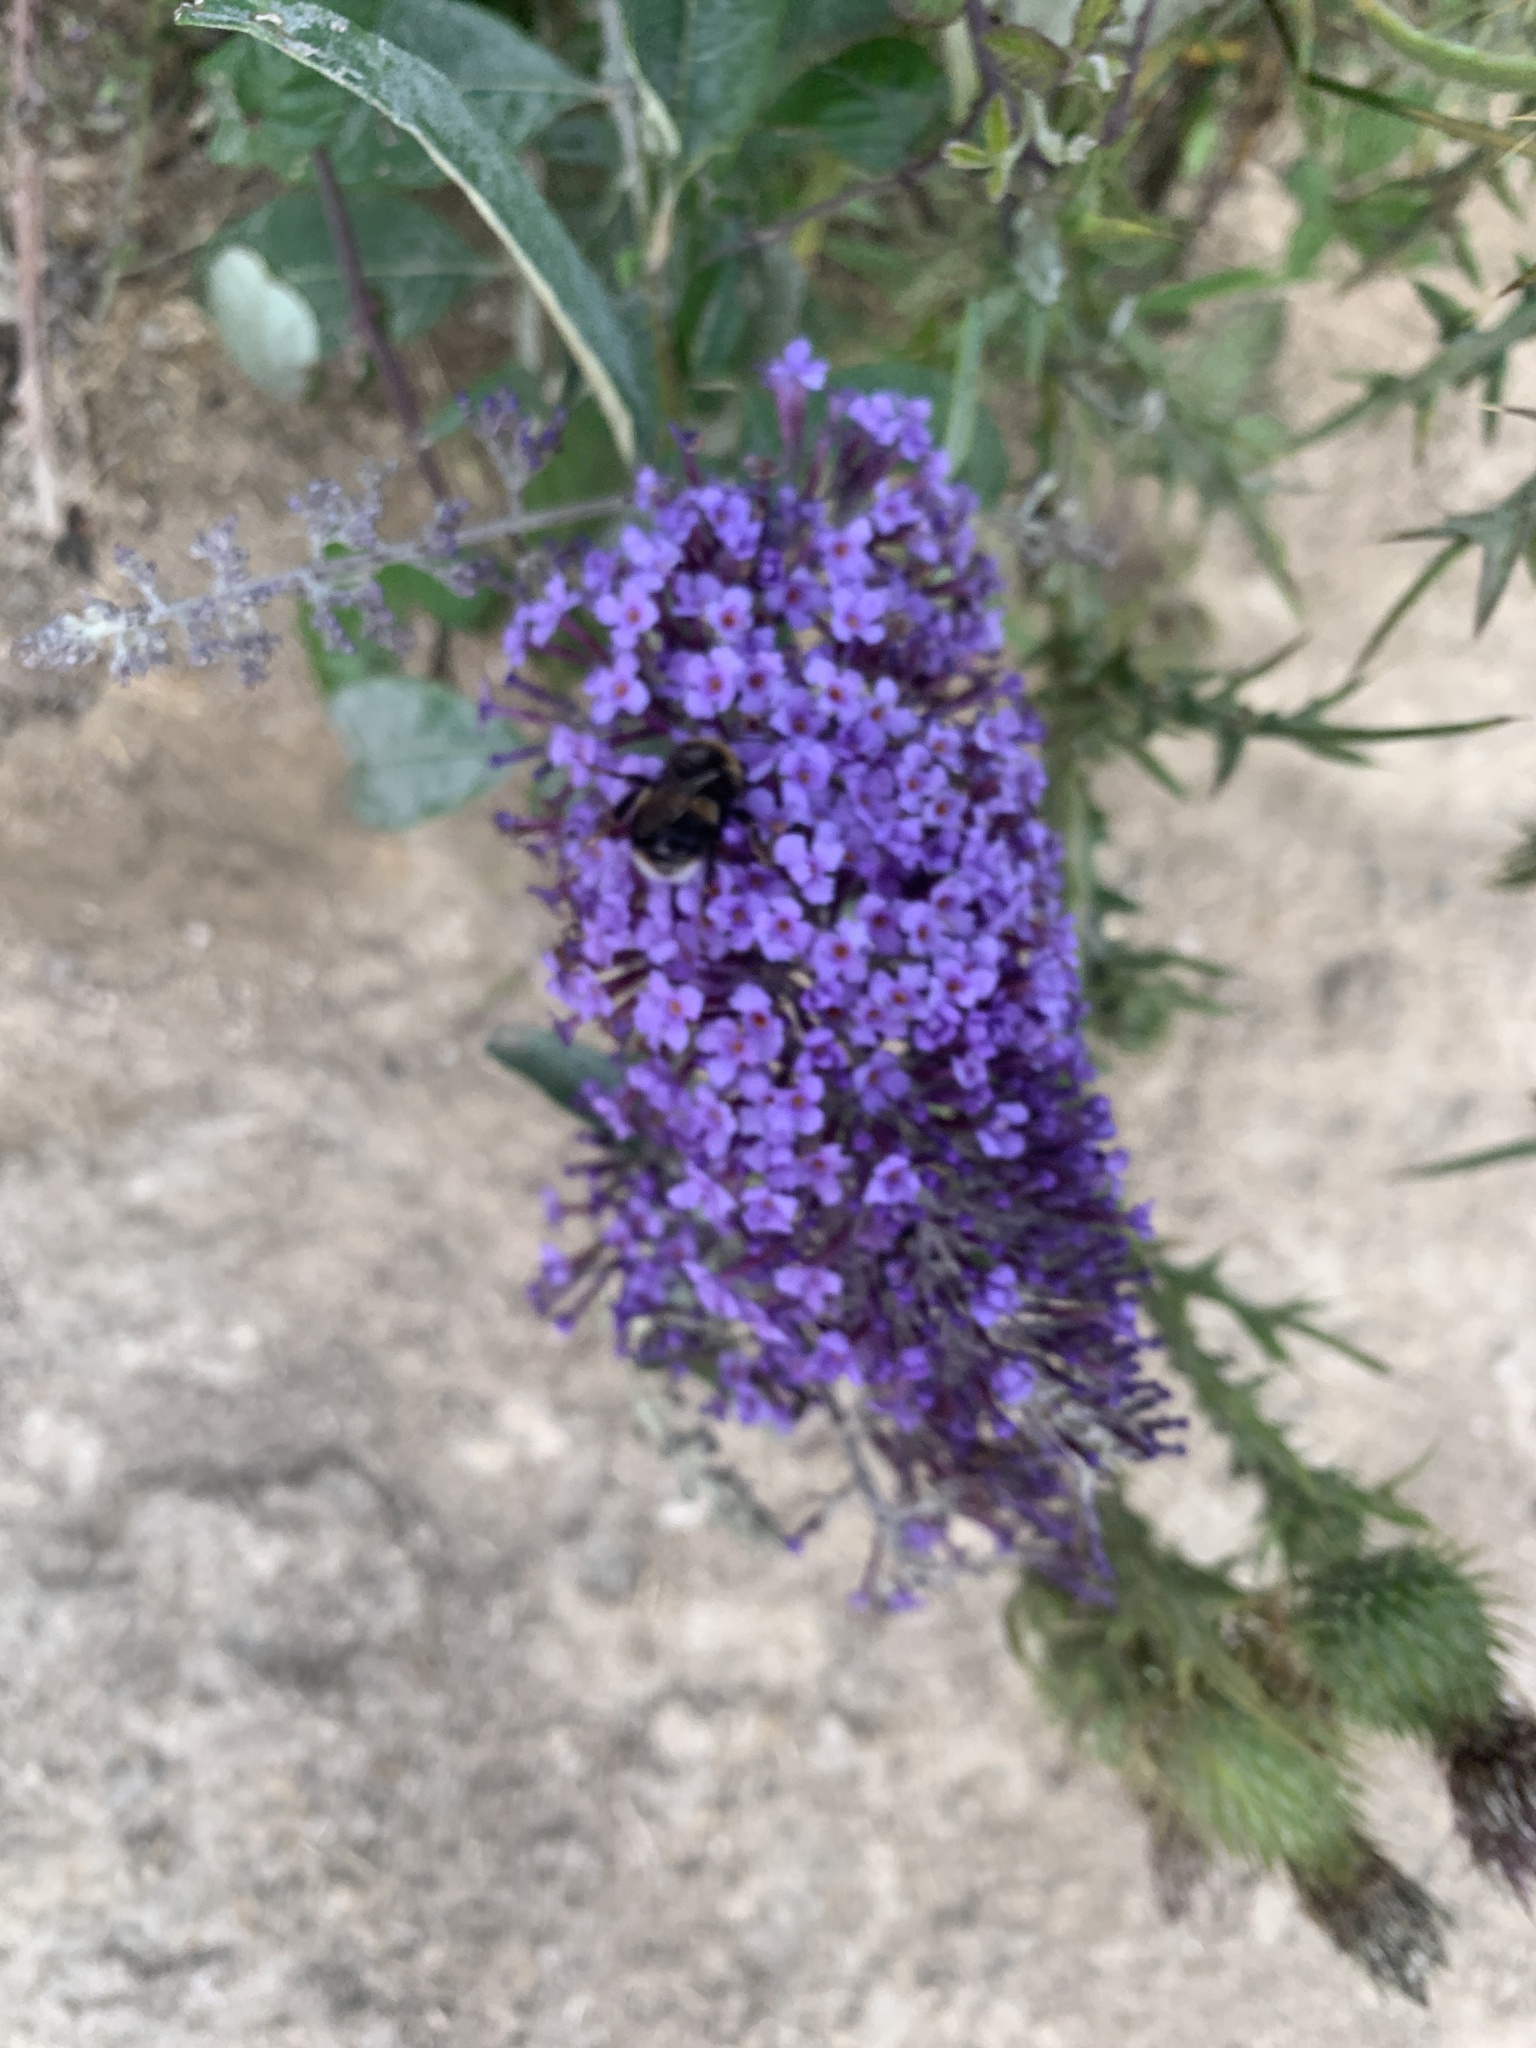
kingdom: Plantae
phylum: Tracheophyta
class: Magnoliopsida
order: Lamiales
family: Scrophulariaceae
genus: Buddleja
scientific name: Buddleja davidii
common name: Butterfly-bush
